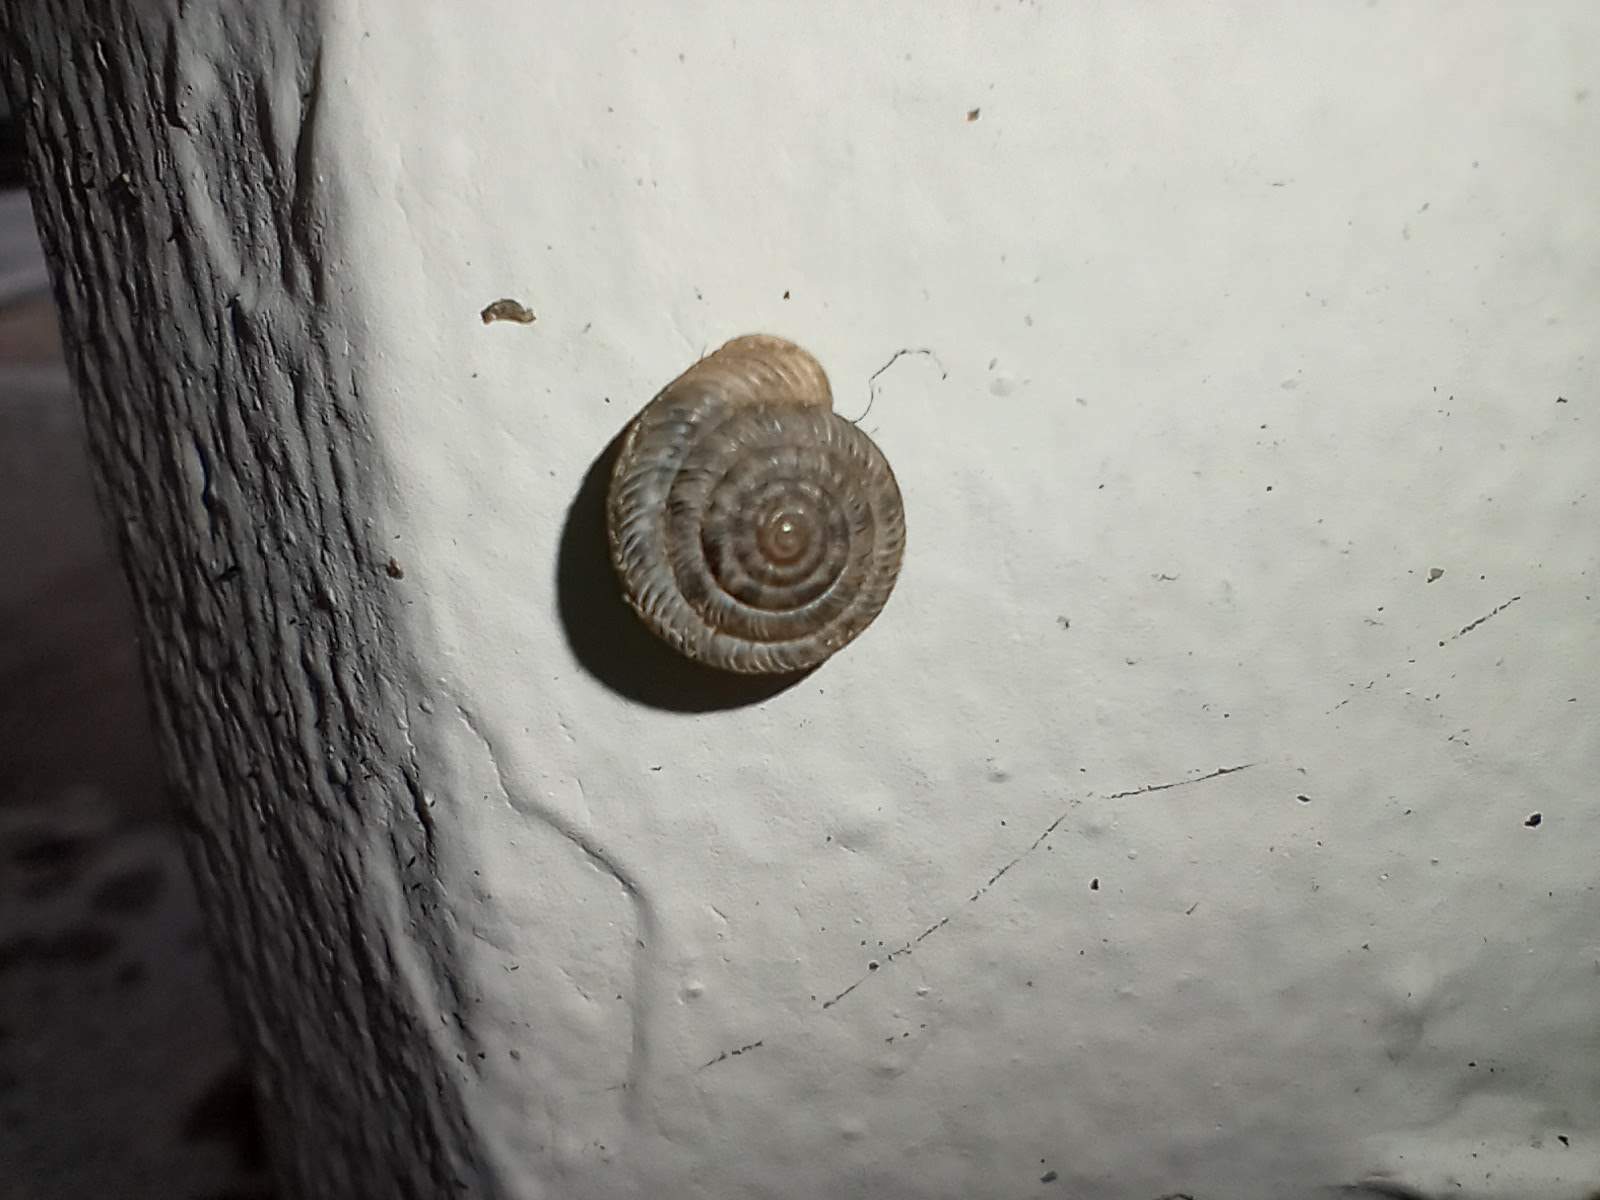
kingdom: Animalia
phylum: Mollusca
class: Gastropoda
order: Stylommatophora
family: Polygyridae
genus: Polygyra
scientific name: Polygyra cereolus
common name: Southern flatcone snail
